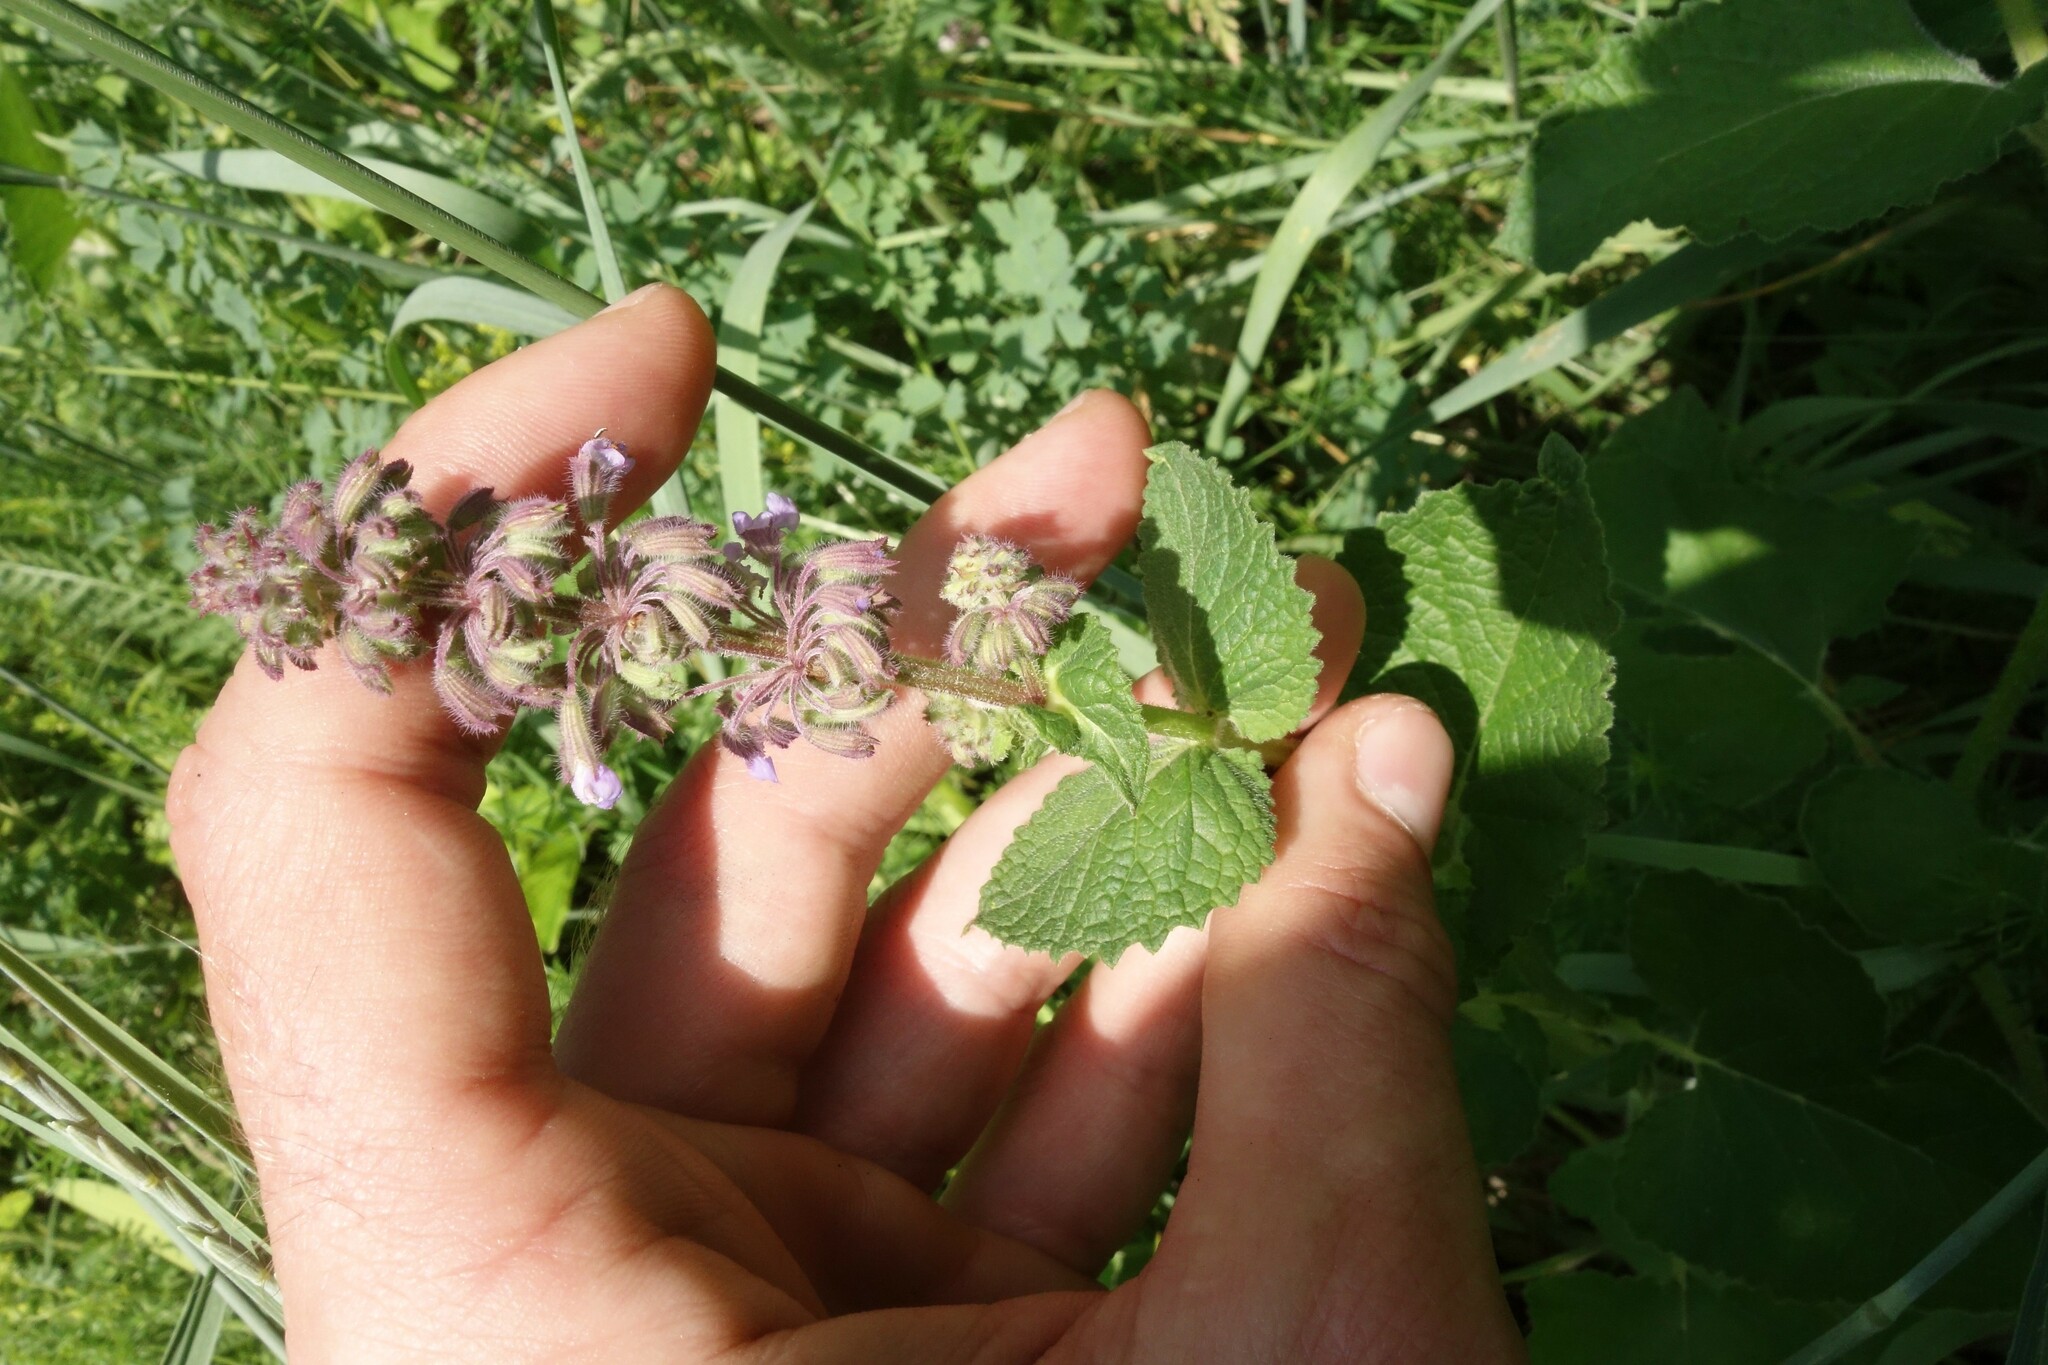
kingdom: Plantae
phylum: Tracheophyta
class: Magnoliopsida
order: Lamiales
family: Lamiaceae
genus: Salvia
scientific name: Salvia verticillata
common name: Whorled clary
